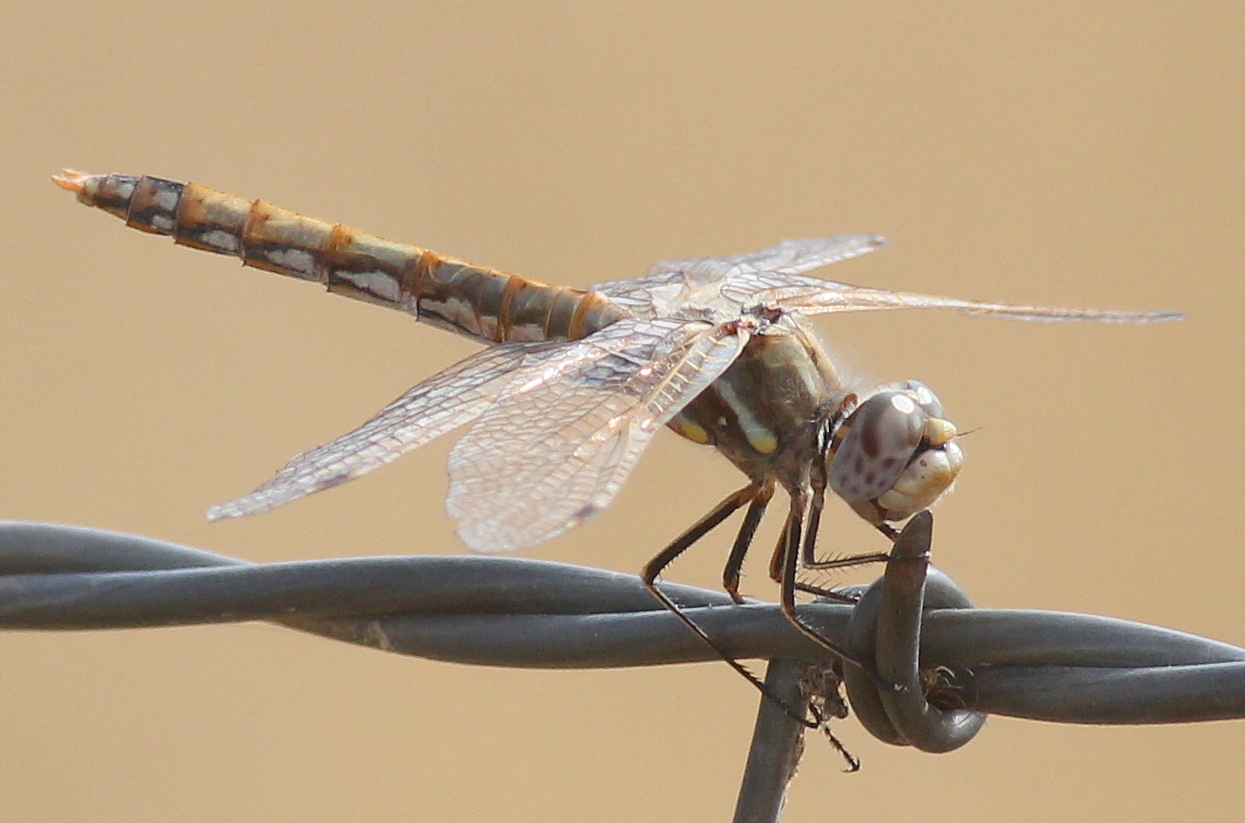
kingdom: Animalia
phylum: Arthropoda
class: Insecta
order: Odonata
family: Libellulidae
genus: Sympetrum
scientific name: Sympetrum corruptum
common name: Variegated meadowhawk
